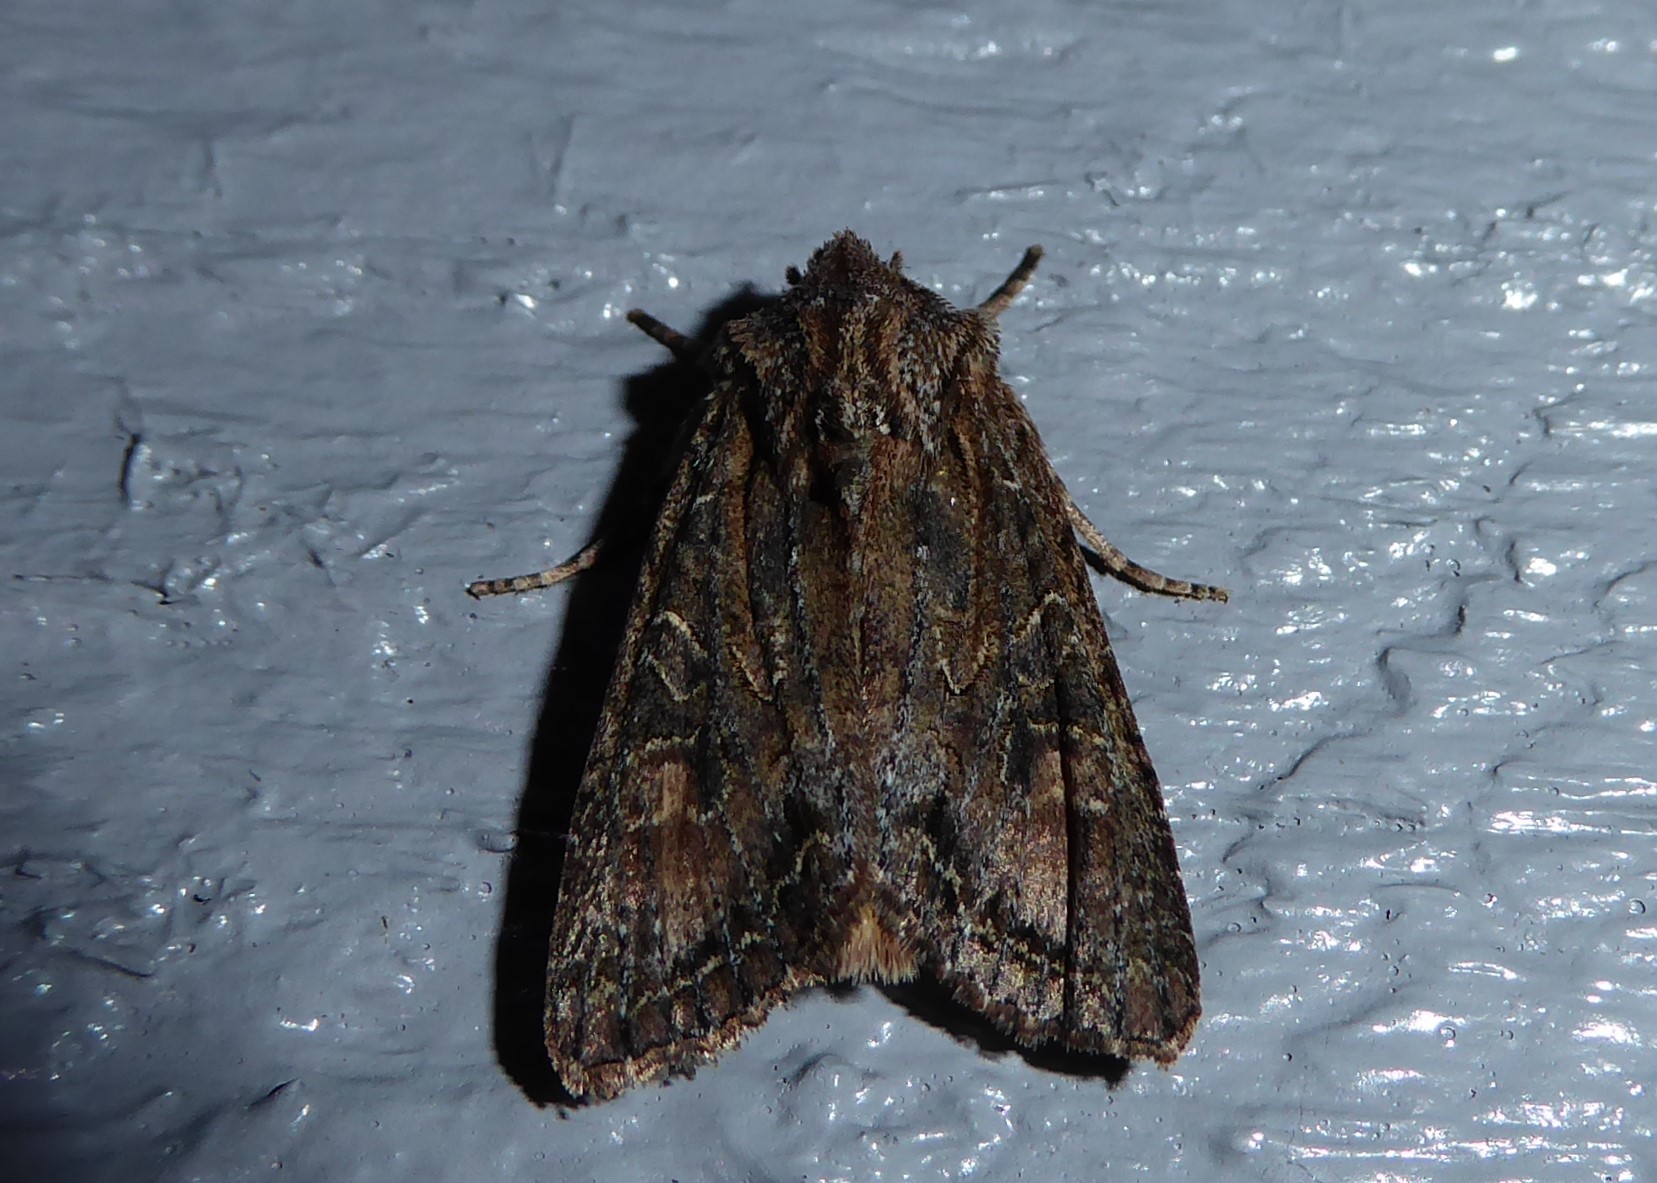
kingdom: Animalia
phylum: Arthropoda
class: Insecta
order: Lepidoptera
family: Noctuidae
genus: Ichneutica
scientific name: Ichneutica mutans
